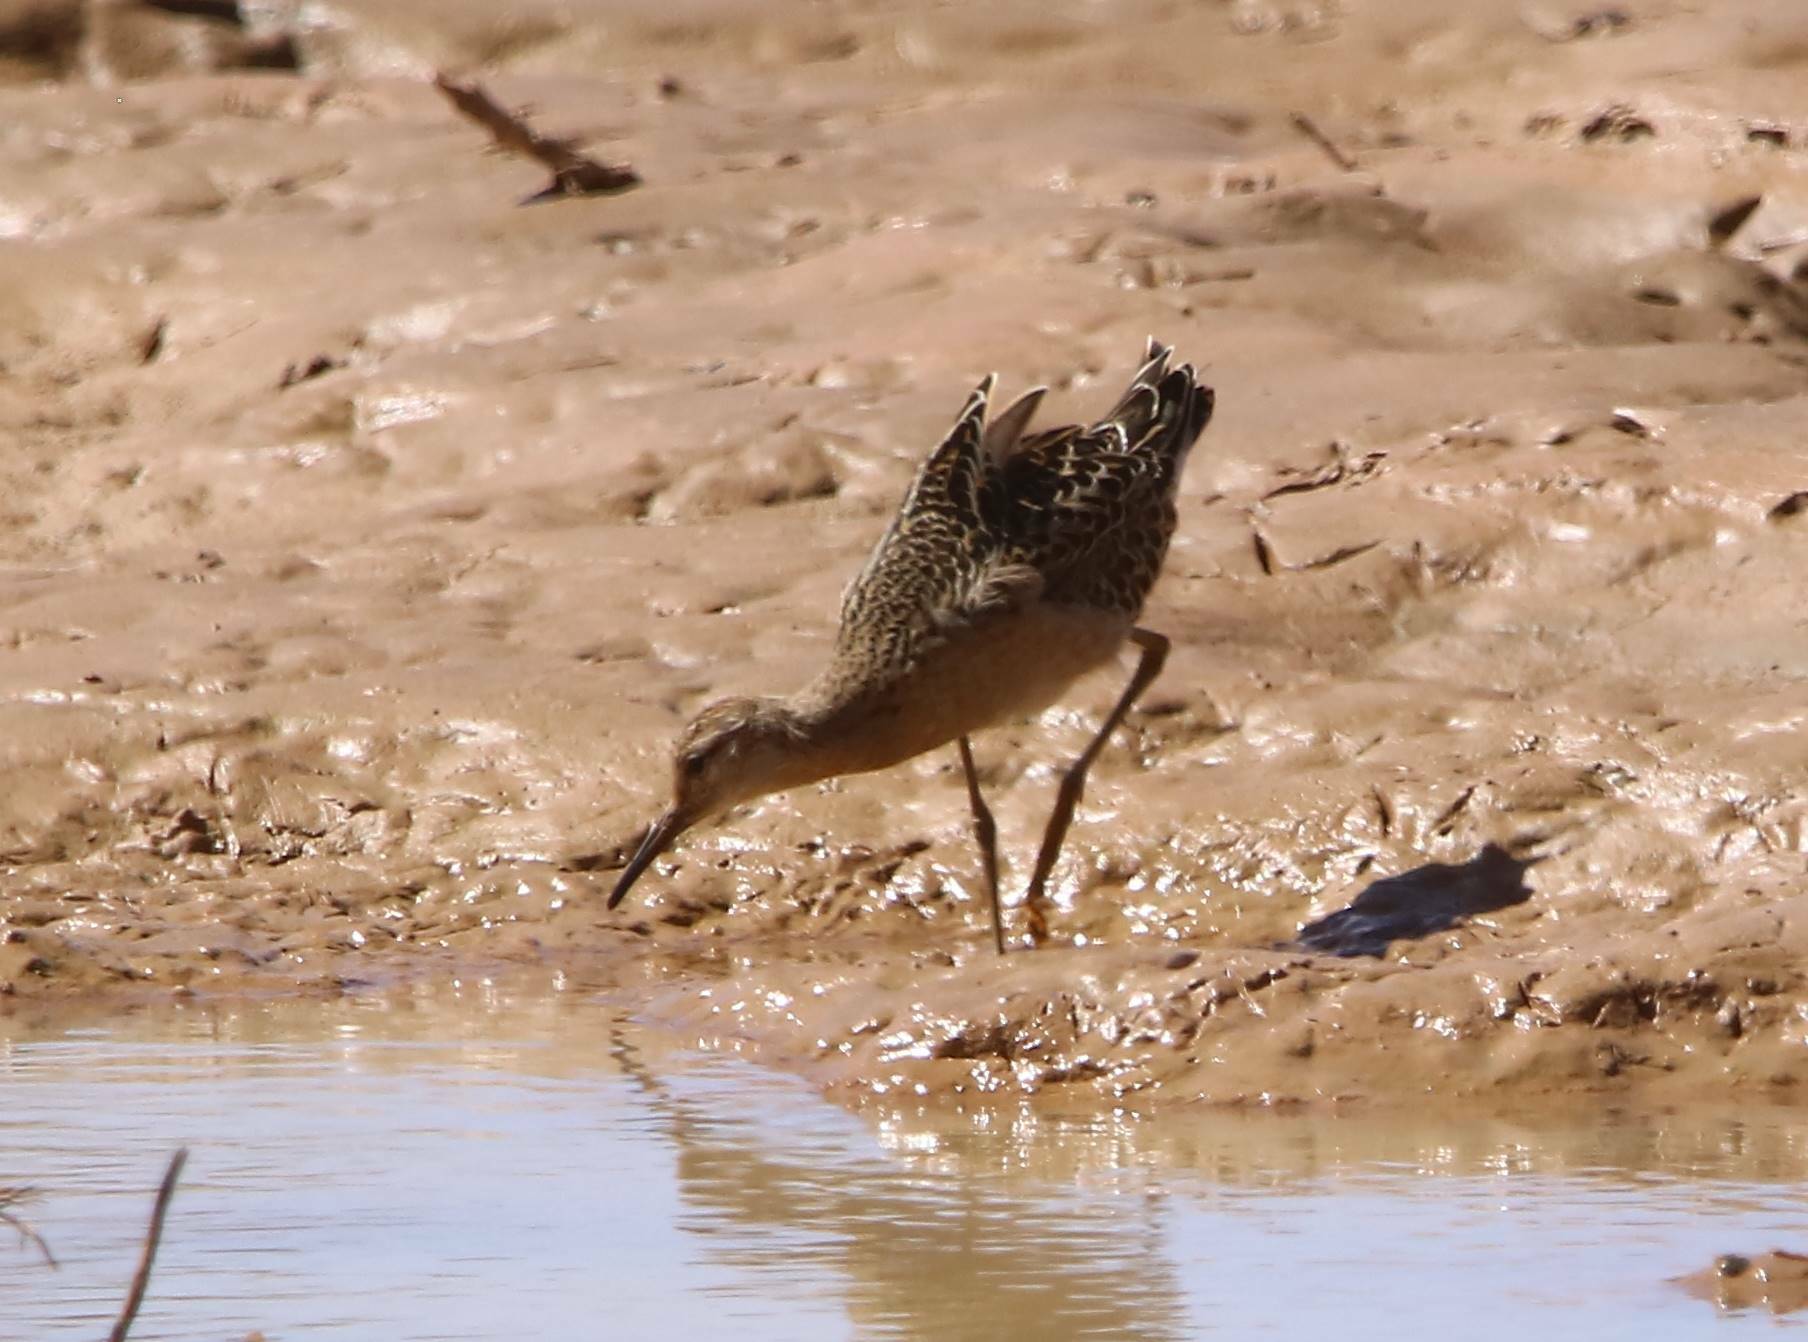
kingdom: Animalia
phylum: Chordata
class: Aves
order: Charadriiformes
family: Scolopacidae
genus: Calidris
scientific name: Calidris pugnax
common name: Ruff
